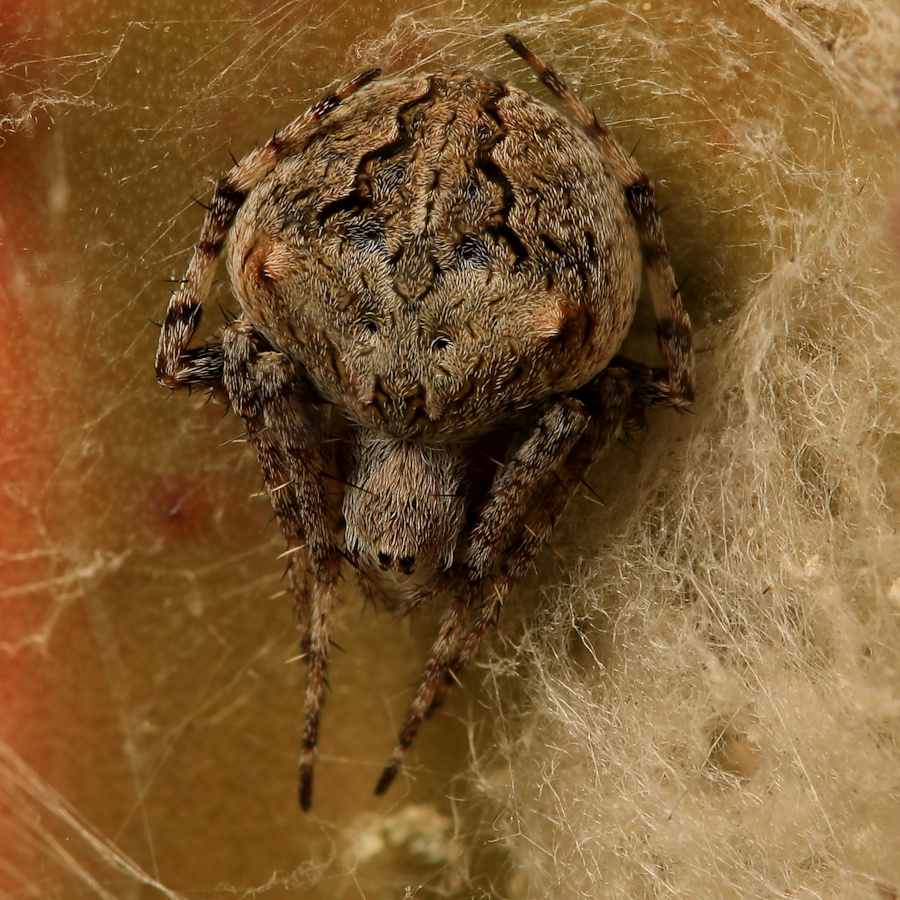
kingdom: Animalia
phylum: Arthropoda
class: Arachnida
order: Araneae
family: Araneidae
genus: Neoscona
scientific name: Neoscona quincasea
